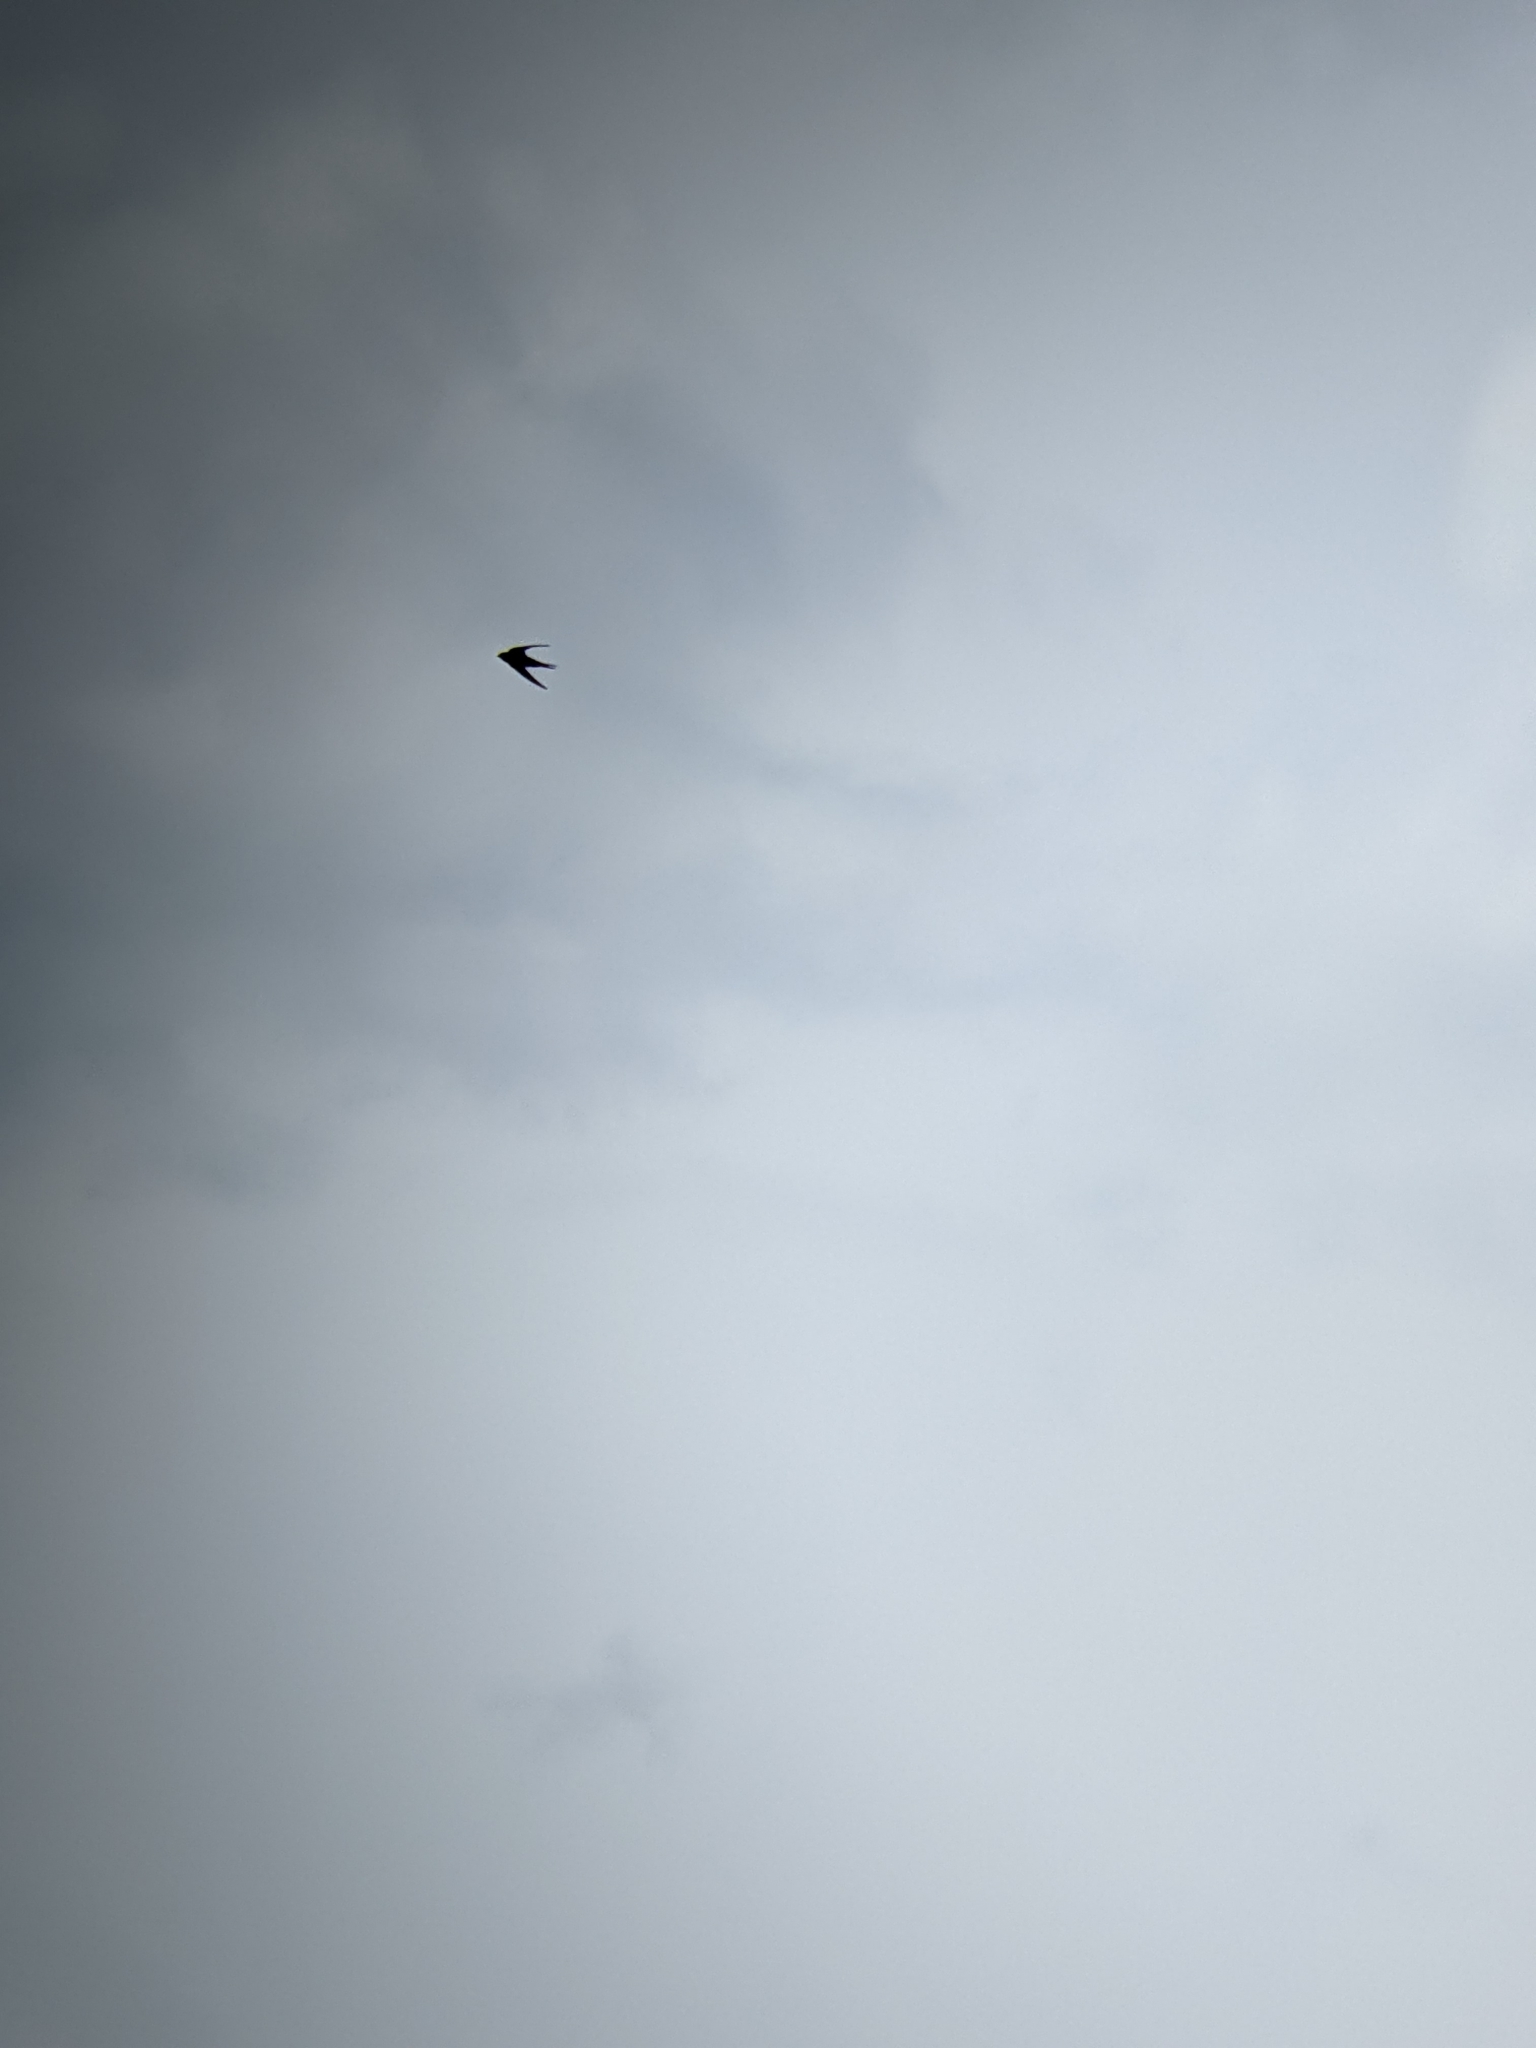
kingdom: Animalia
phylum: Chordata
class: Aves
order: Apodiformes
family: Apodidae
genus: Apus
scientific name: Apus apus
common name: Common swift
